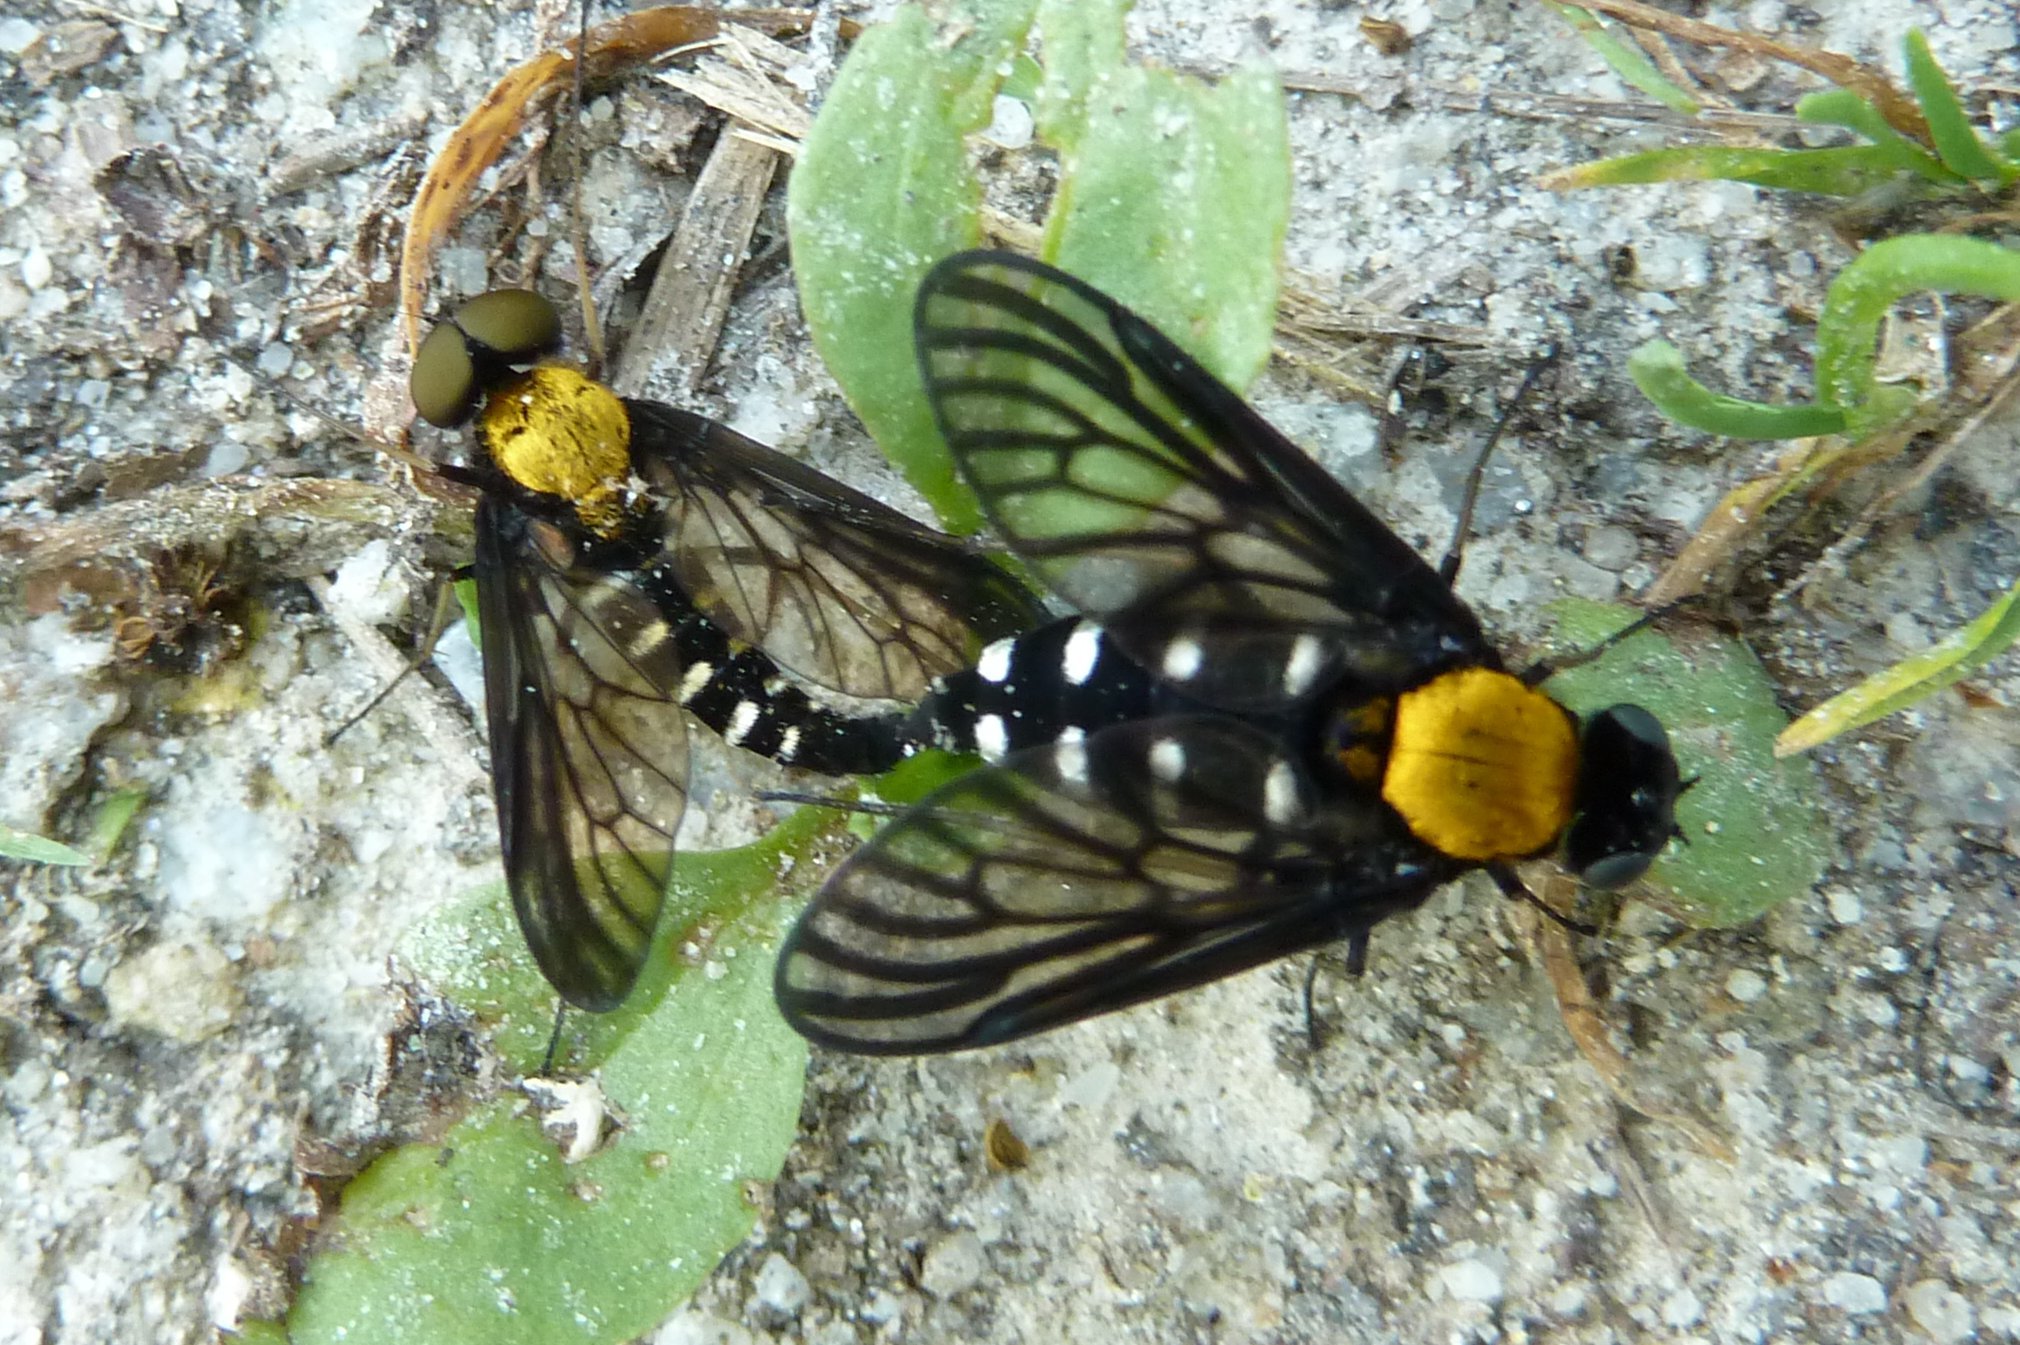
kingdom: Animalia
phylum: Arthropoda
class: Insecta
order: Diptera
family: Rhagionidae
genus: Chrysopilus
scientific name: Chrysopilus thoracicus
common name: Golden-backed snipe fly
